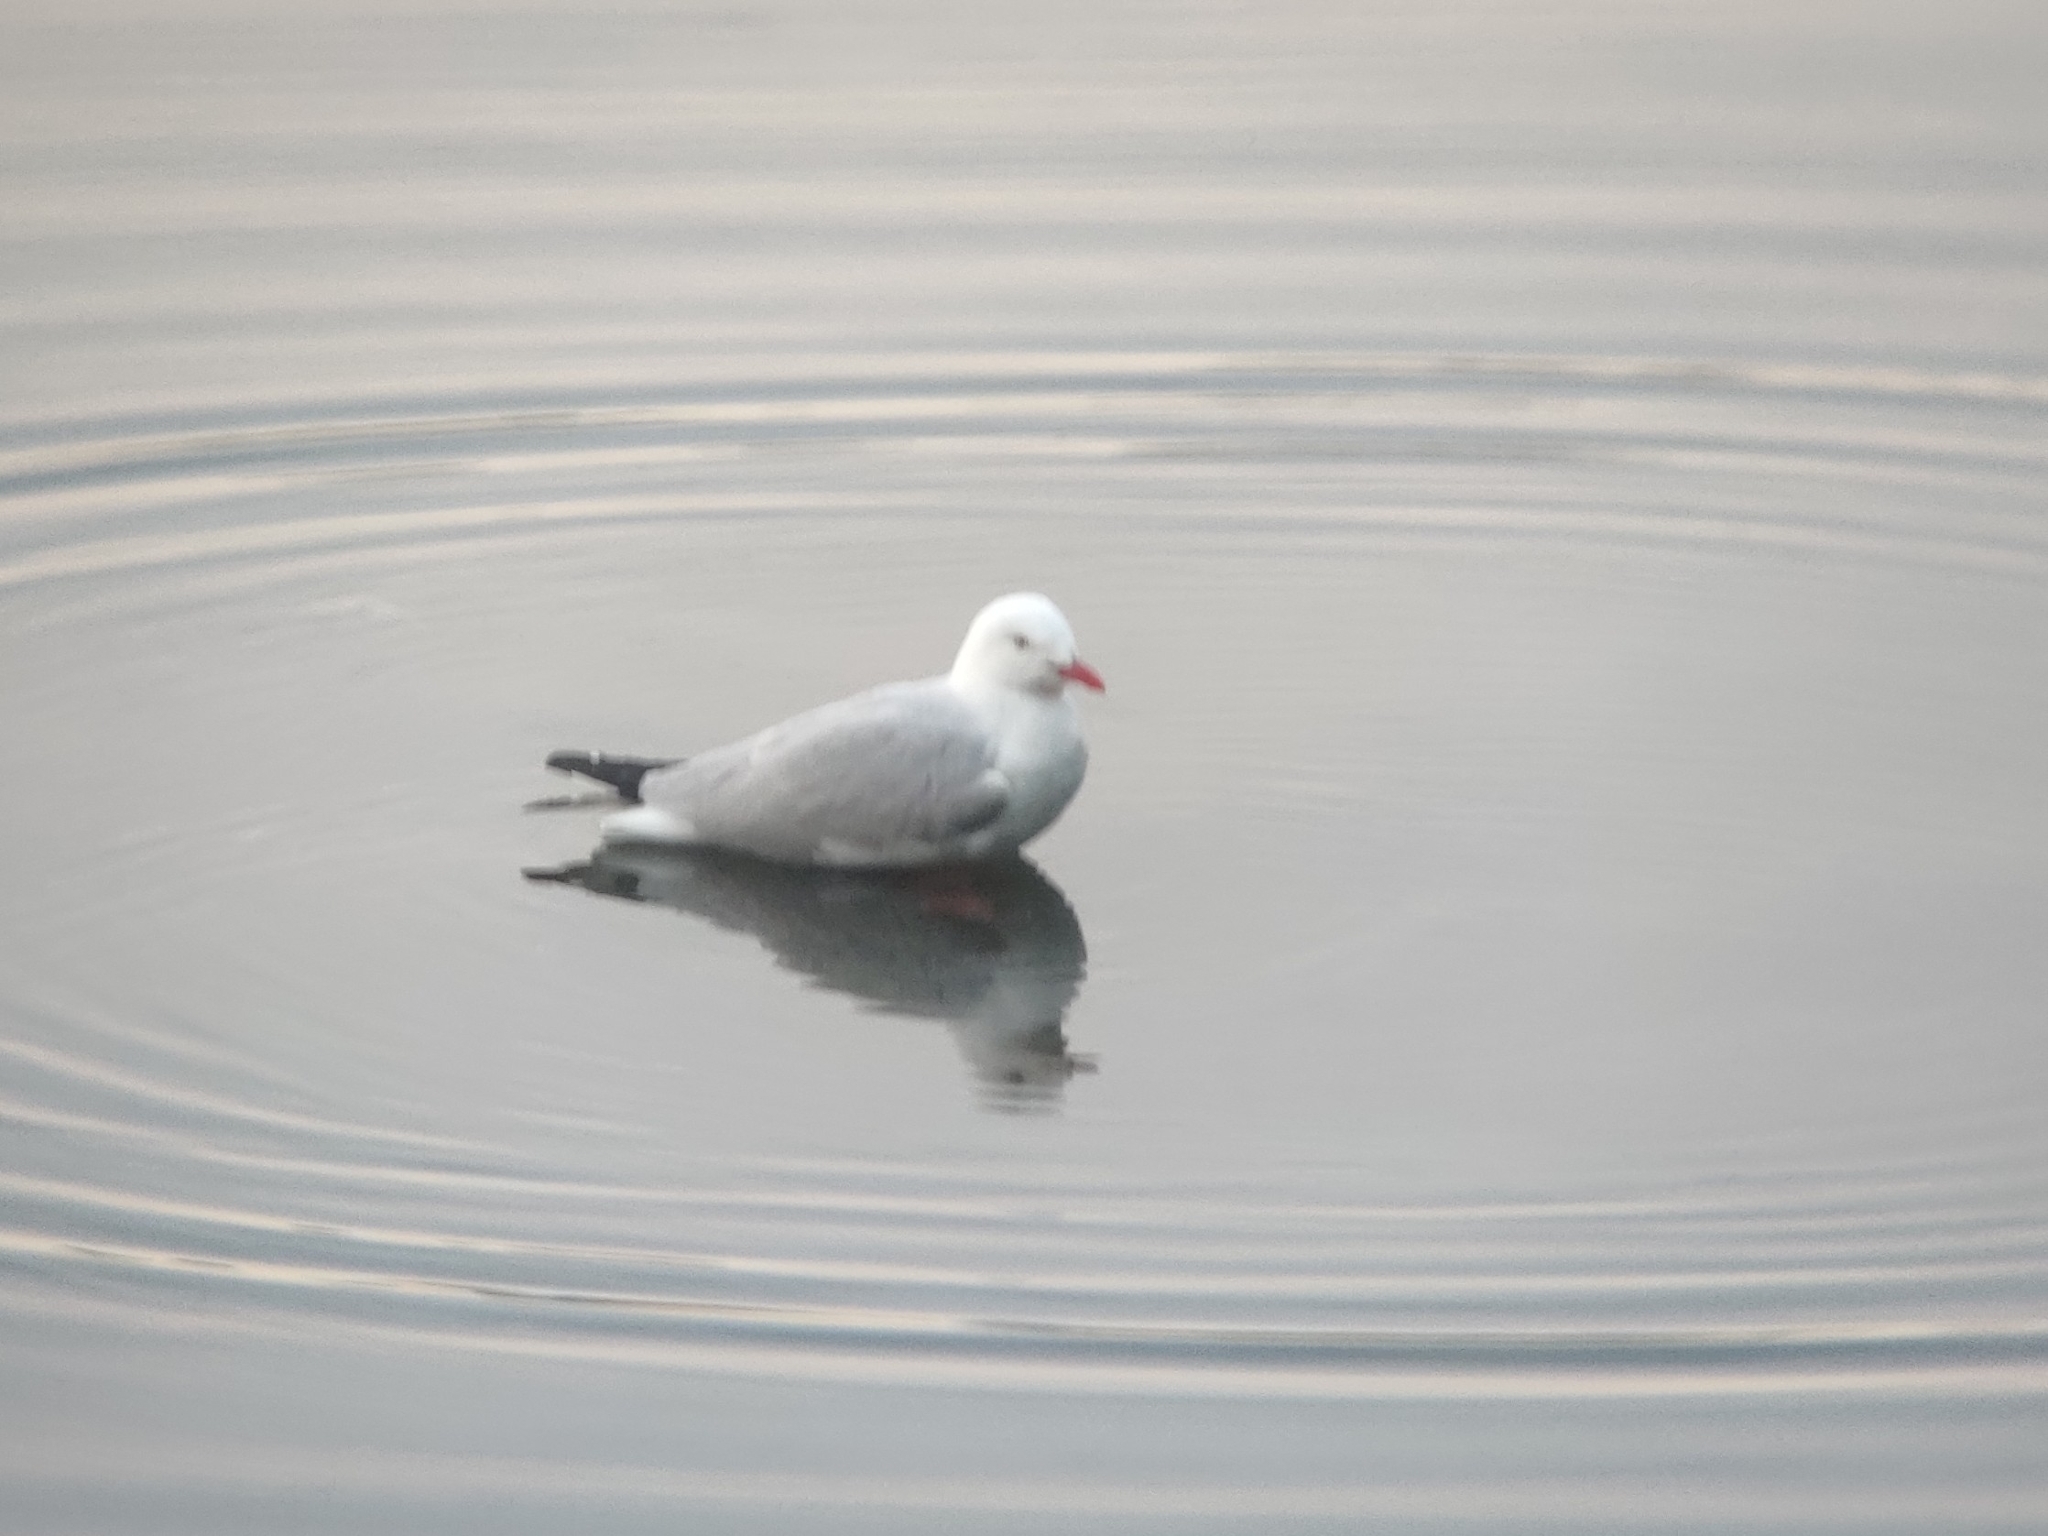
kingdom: Animalia
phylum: Chordata
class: Aves
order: Charadriiformes
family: Laridae
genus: Chroicocephalus
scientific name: Chroicocephalus novaehollandiae
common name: Silver gull
